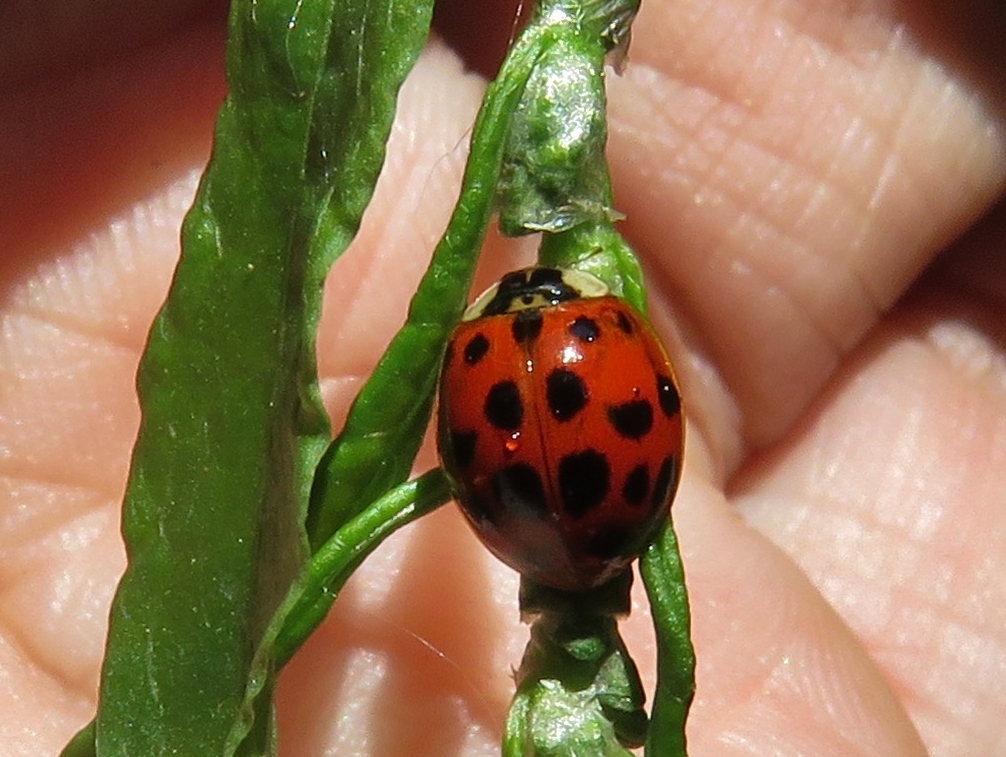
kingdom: Animalia
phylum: Arthropoda
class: Insecta
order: Coleoptera
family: Coccinellidae
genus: Harmonia
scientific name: Harmonia axyridis
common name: Harlequin ladybird
